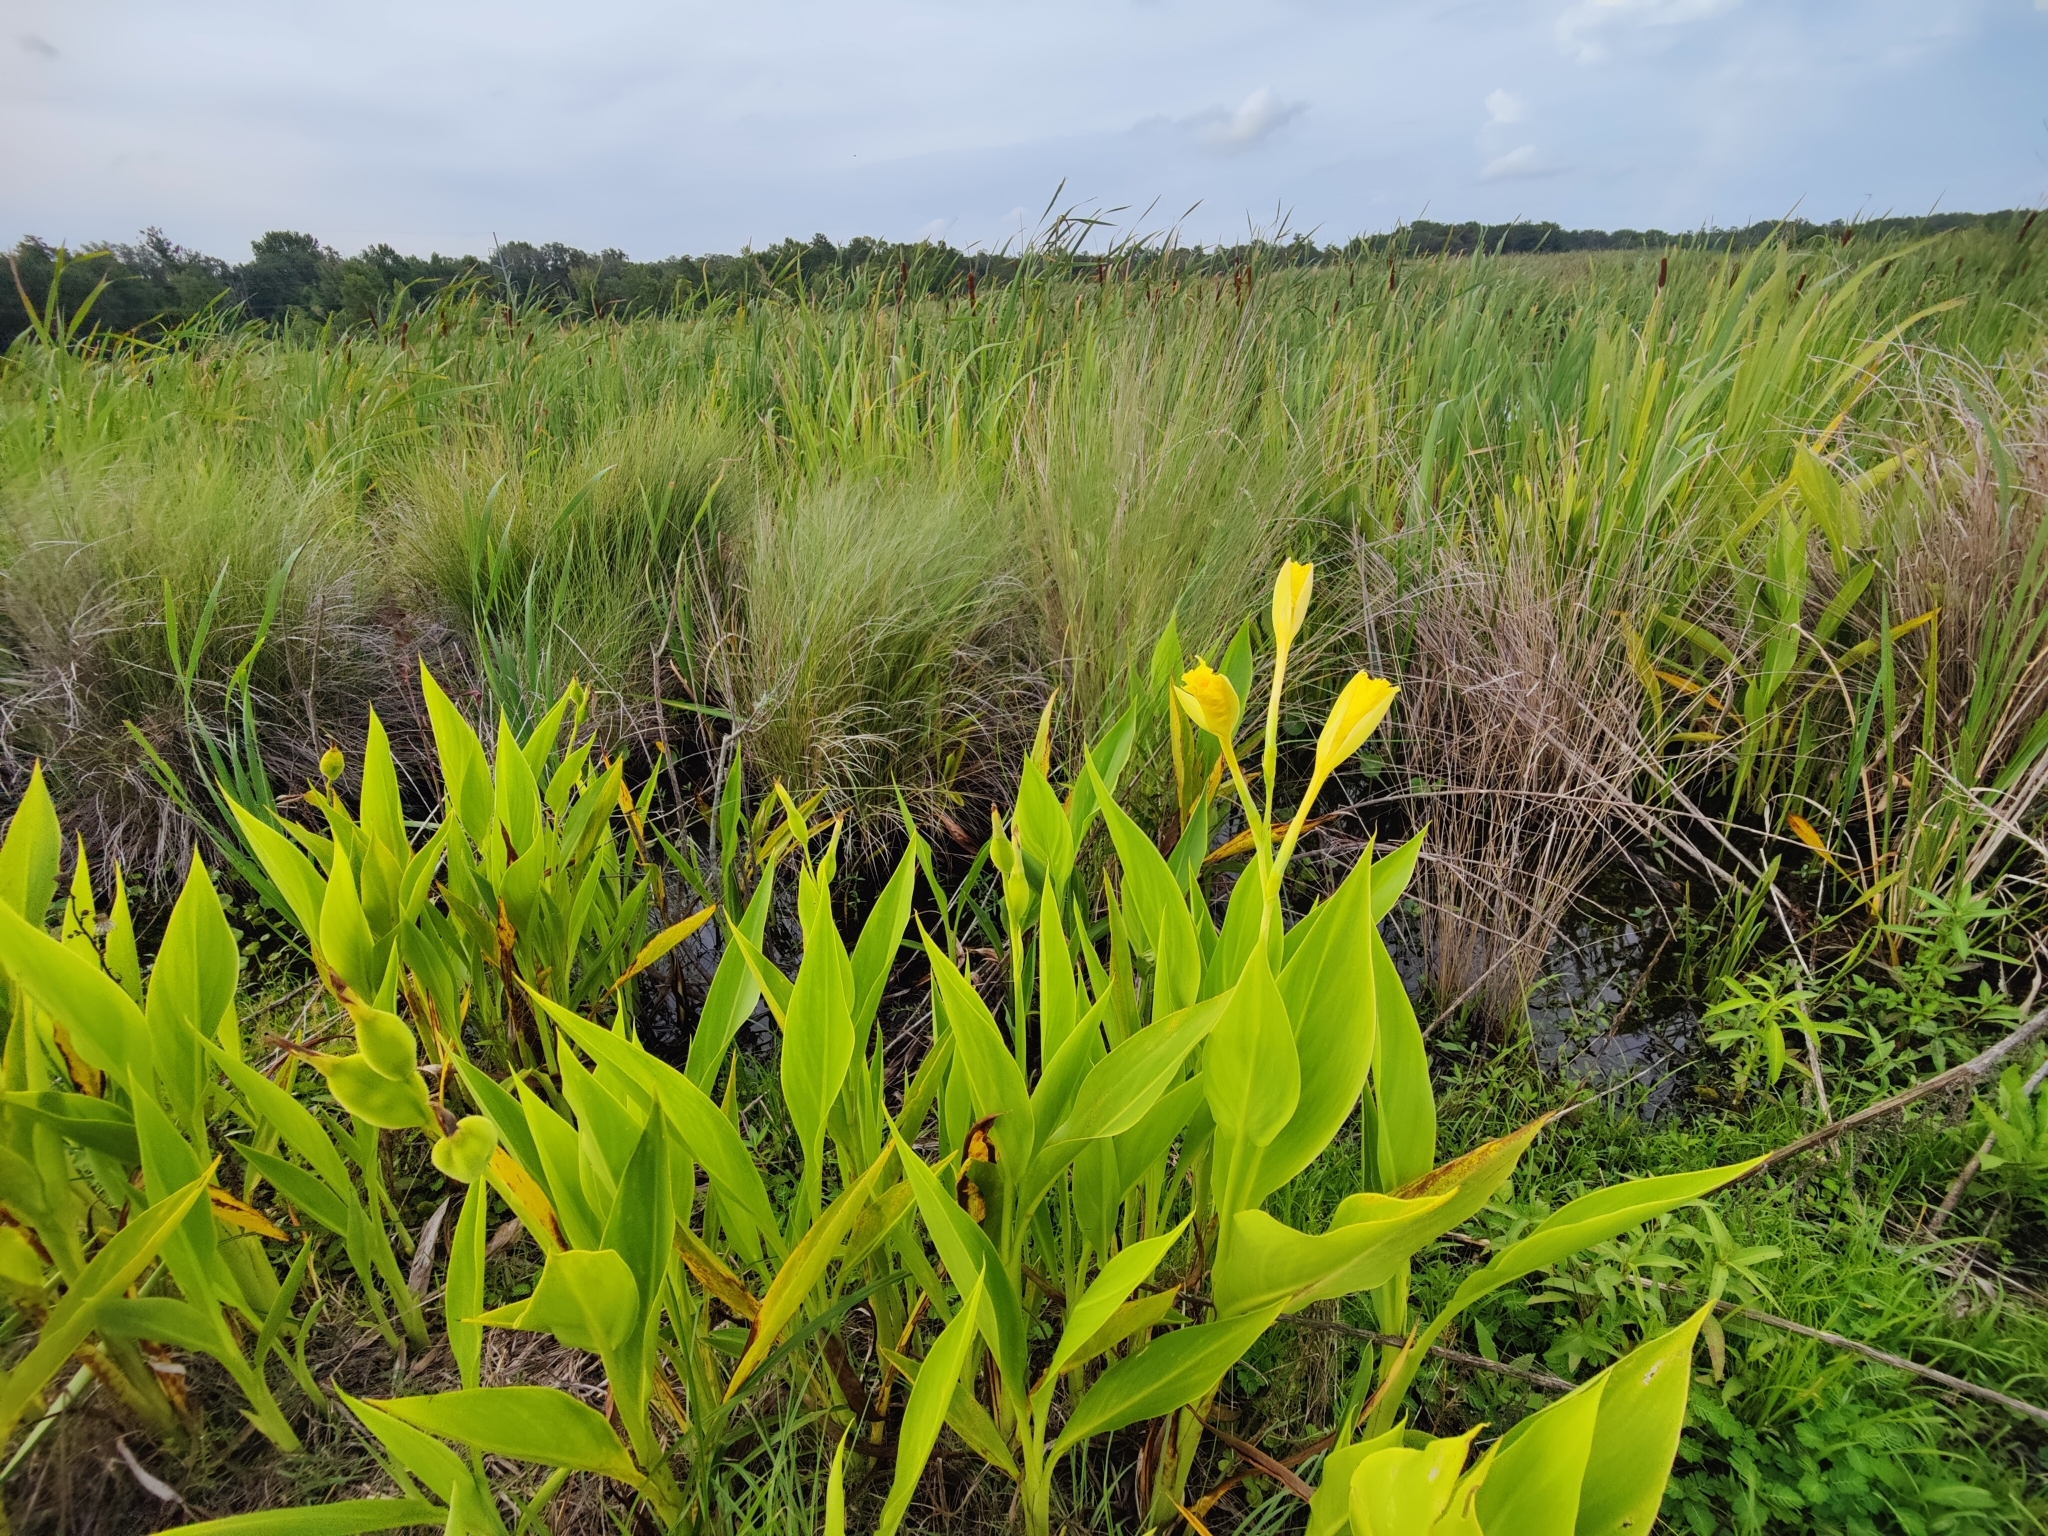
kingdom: Plantae
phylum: Tracheophyta
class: Liliopsida
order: Zingiberales
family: Cannaceae
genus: Canna
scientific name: Canna flaccida
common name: Bandana-of-the-everglades
